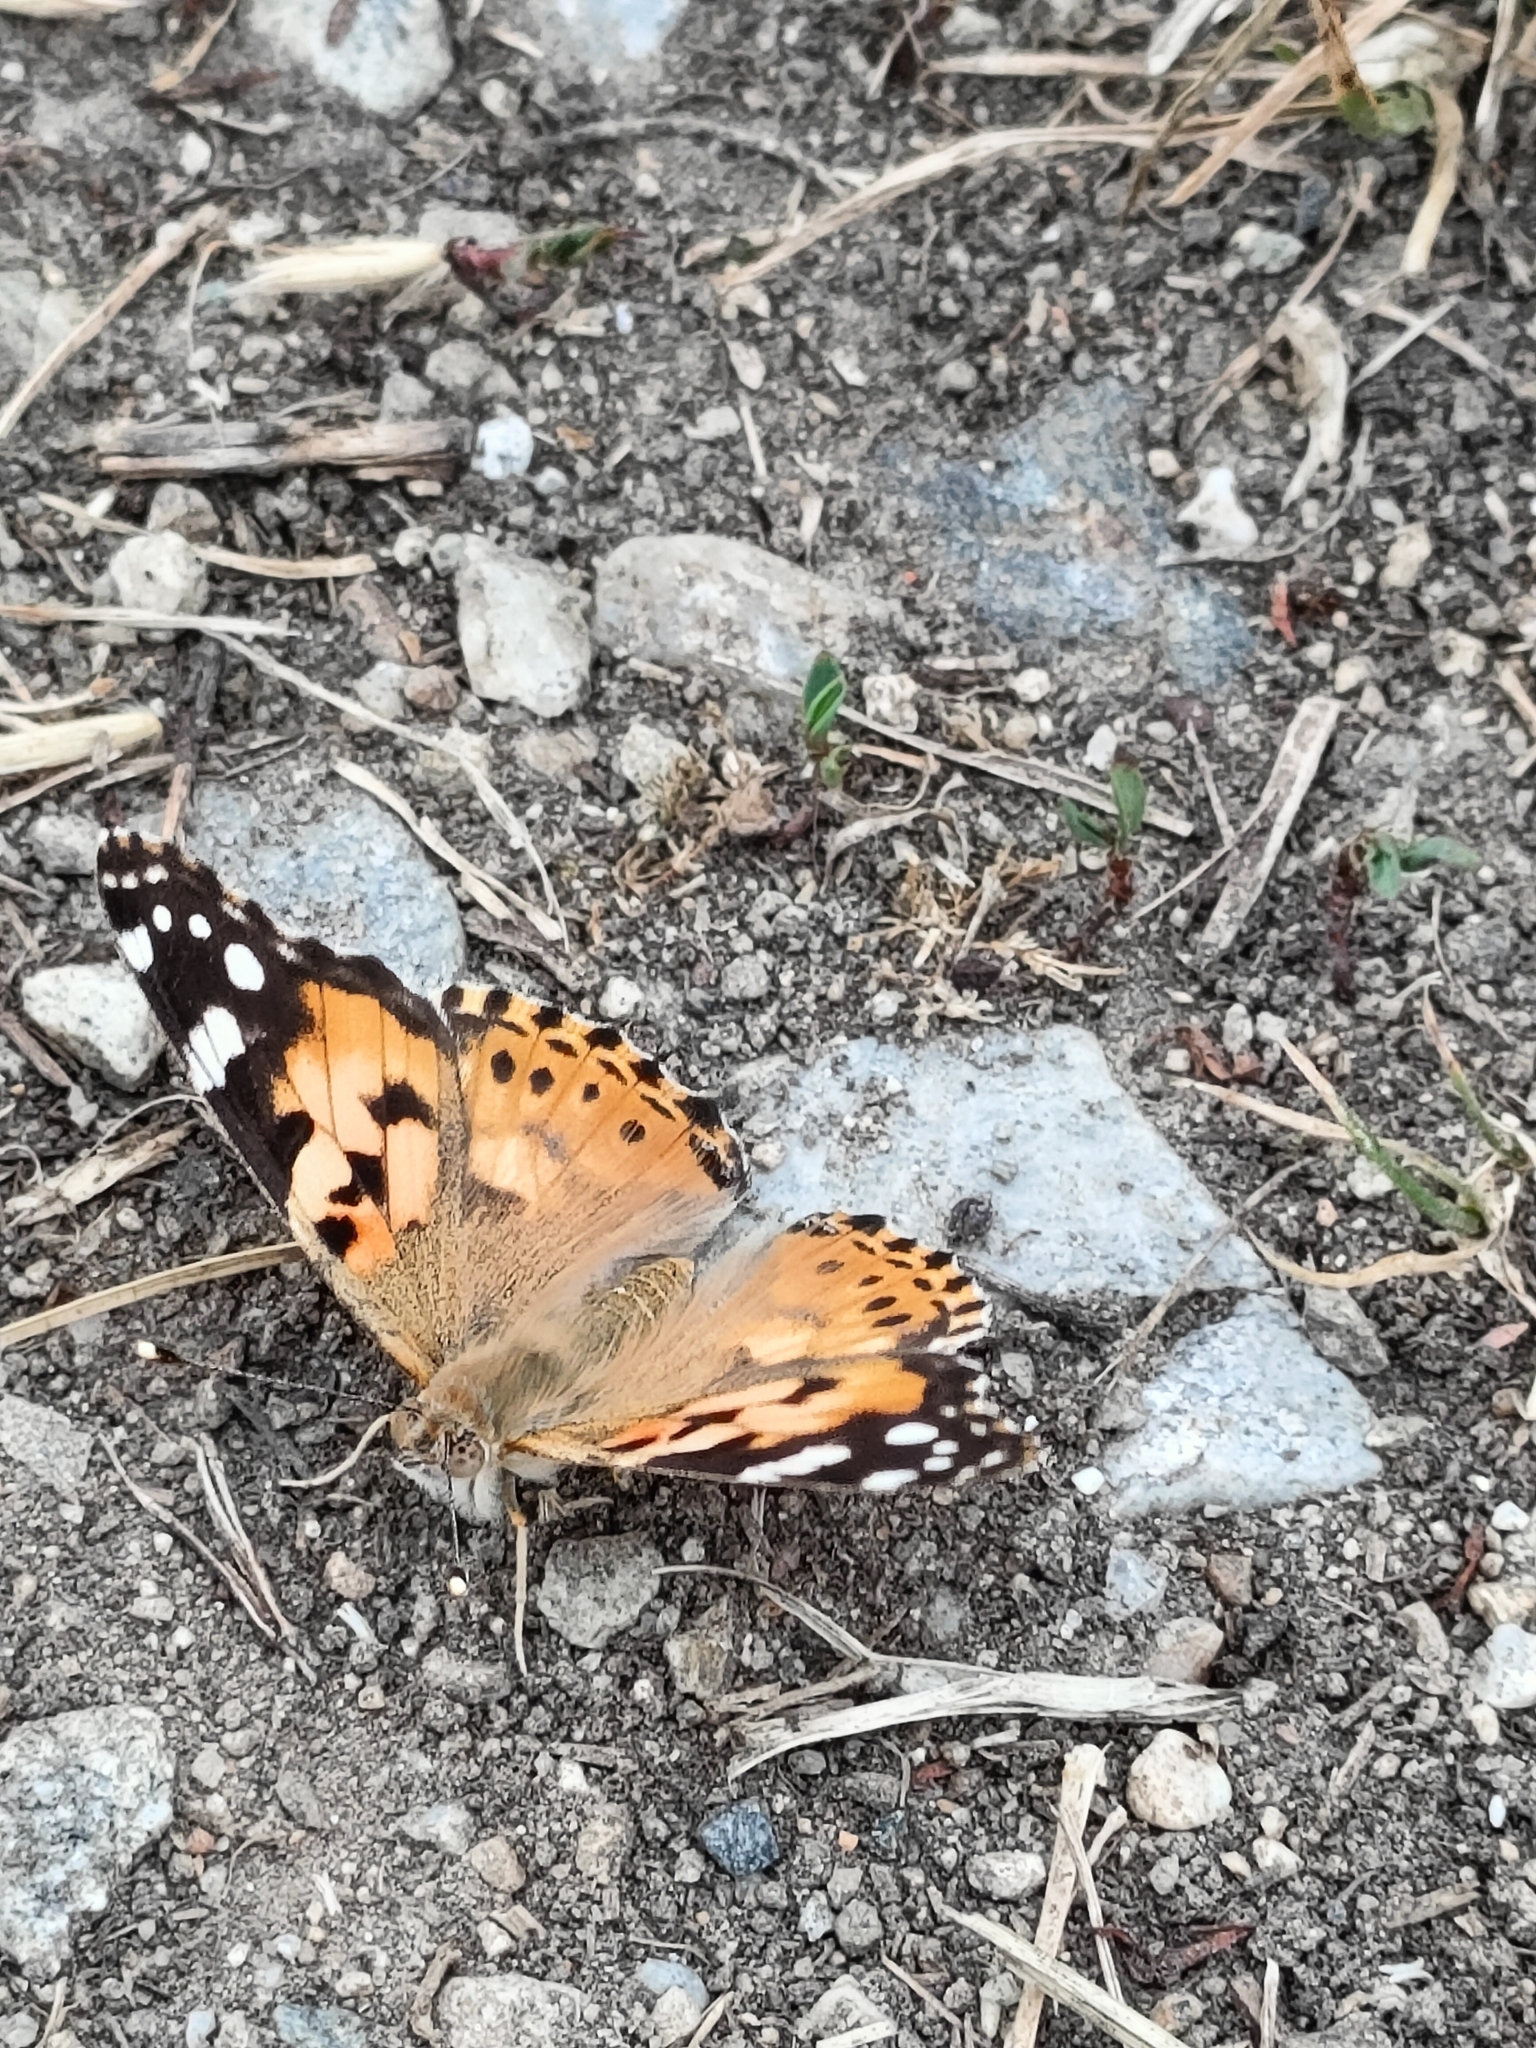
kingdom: Animalia
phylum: Arthropoda
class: Insecta
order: Lepidoptera
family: Nymphalidae
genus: Vanessa
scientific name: Vanessa cardui
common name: Painted lady
